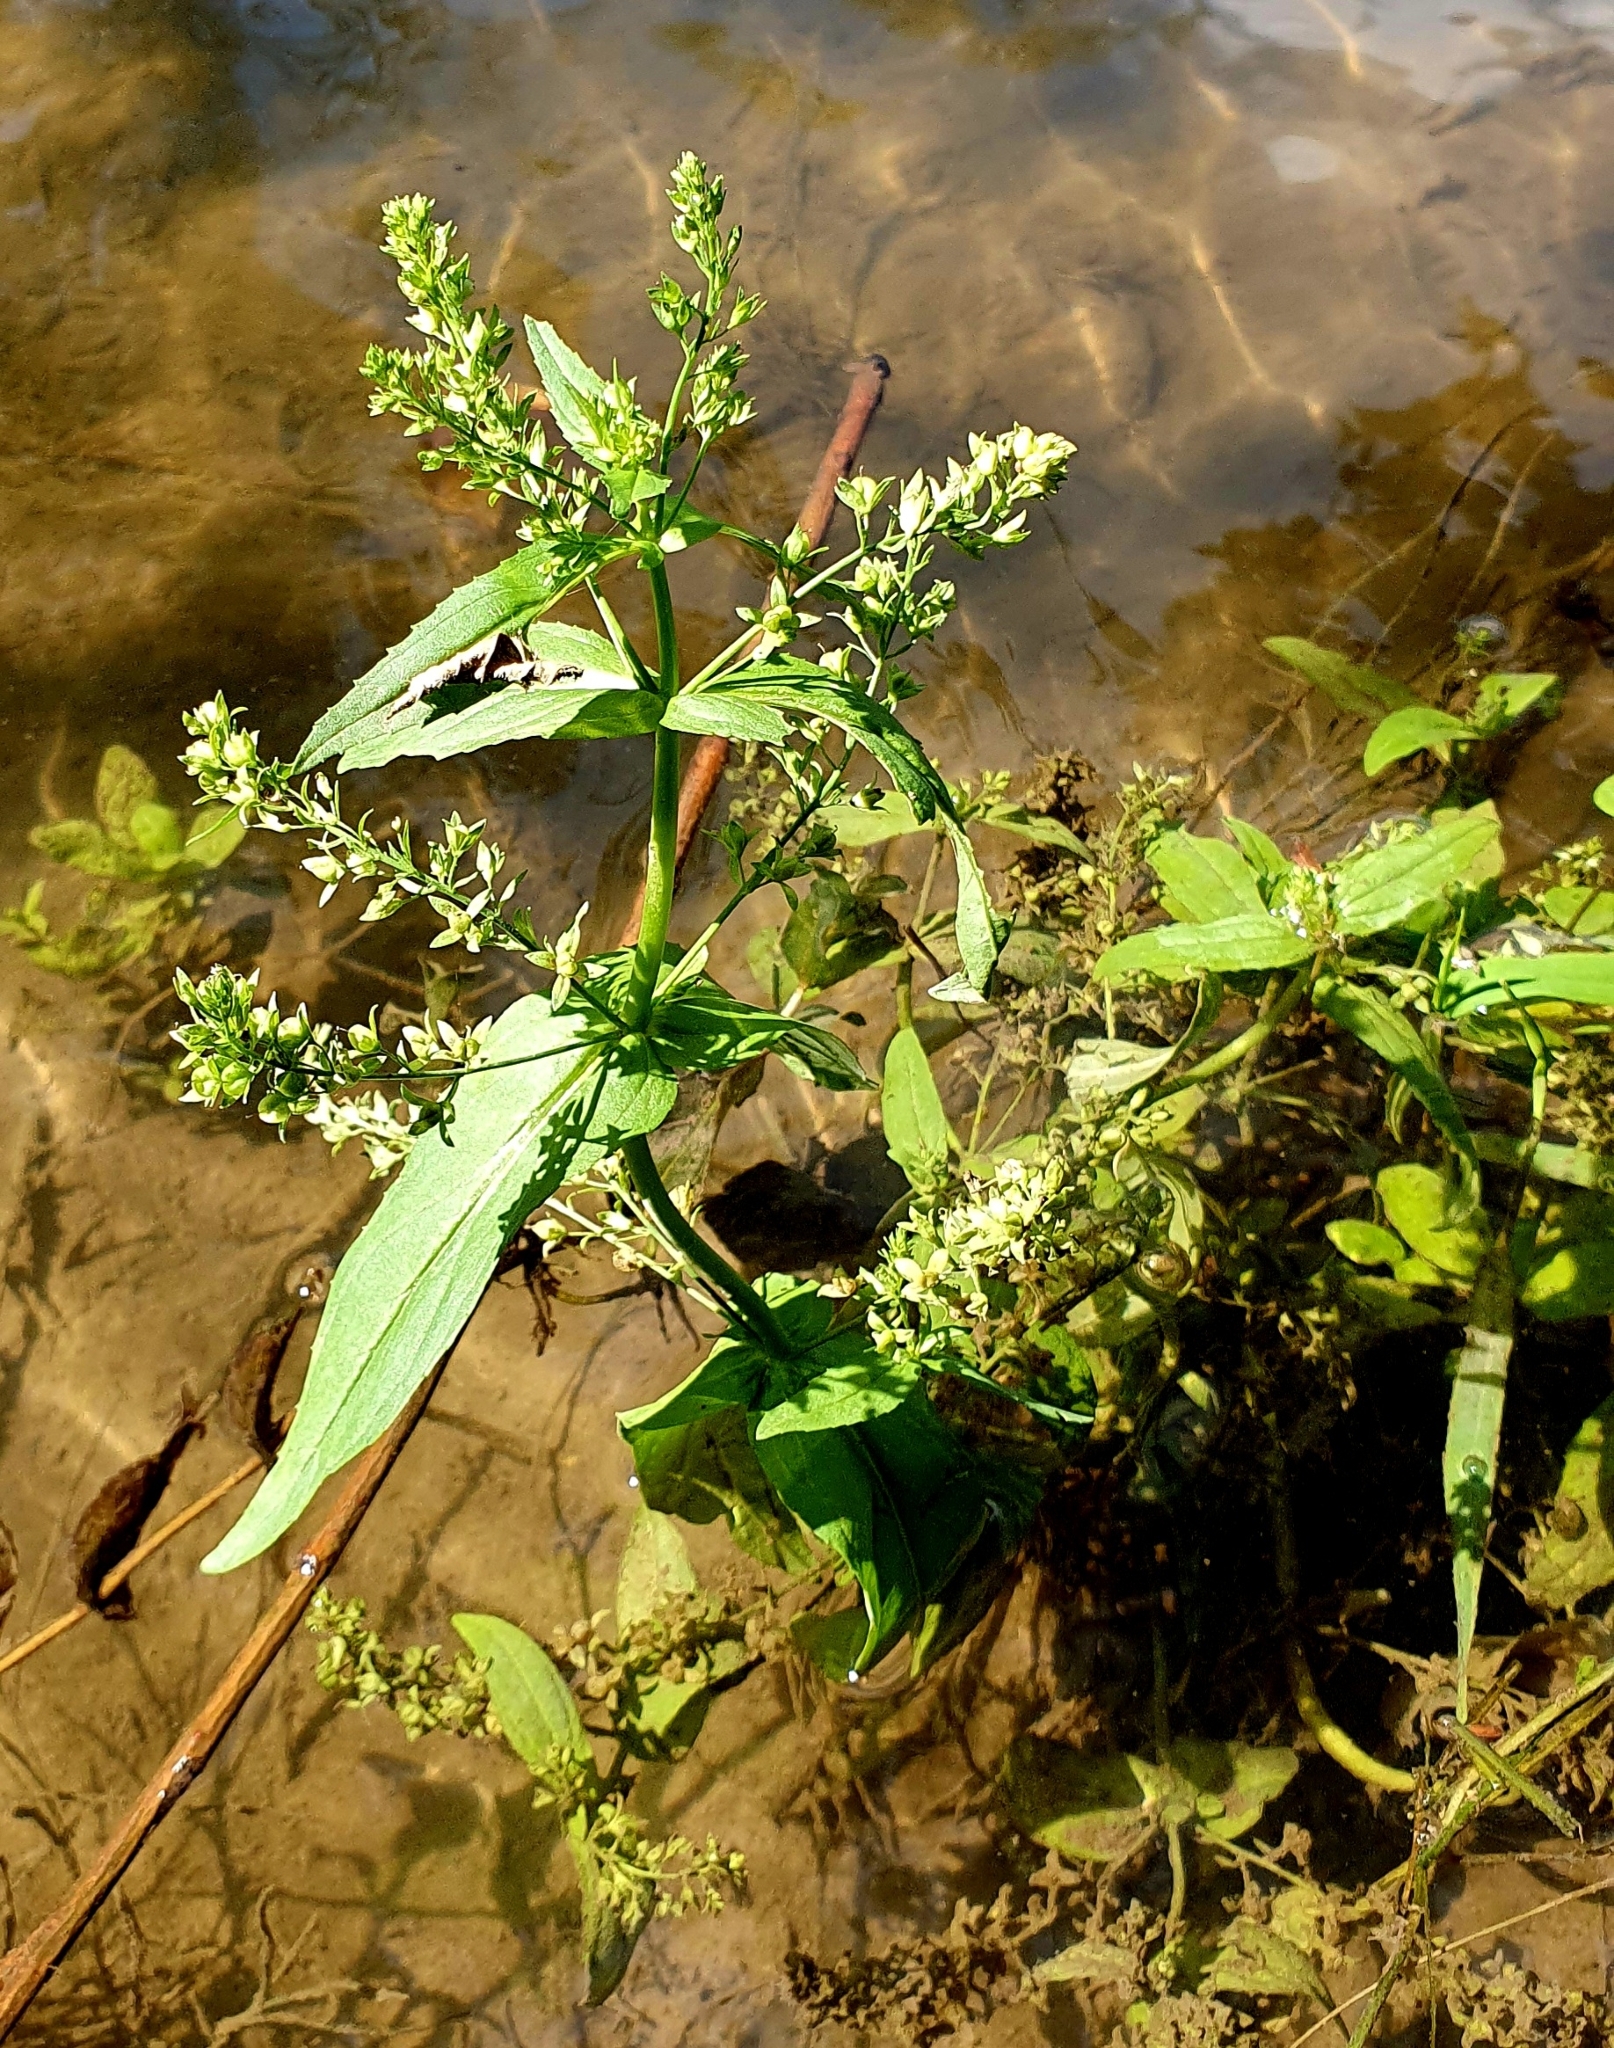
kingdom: Plantae
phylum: Tracheophyta
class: Magnoliopsida
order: Lamiales
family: Plantaginaceae
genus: Veronica
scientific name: Veronica anagallis-aquatica
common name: Water speedwell
